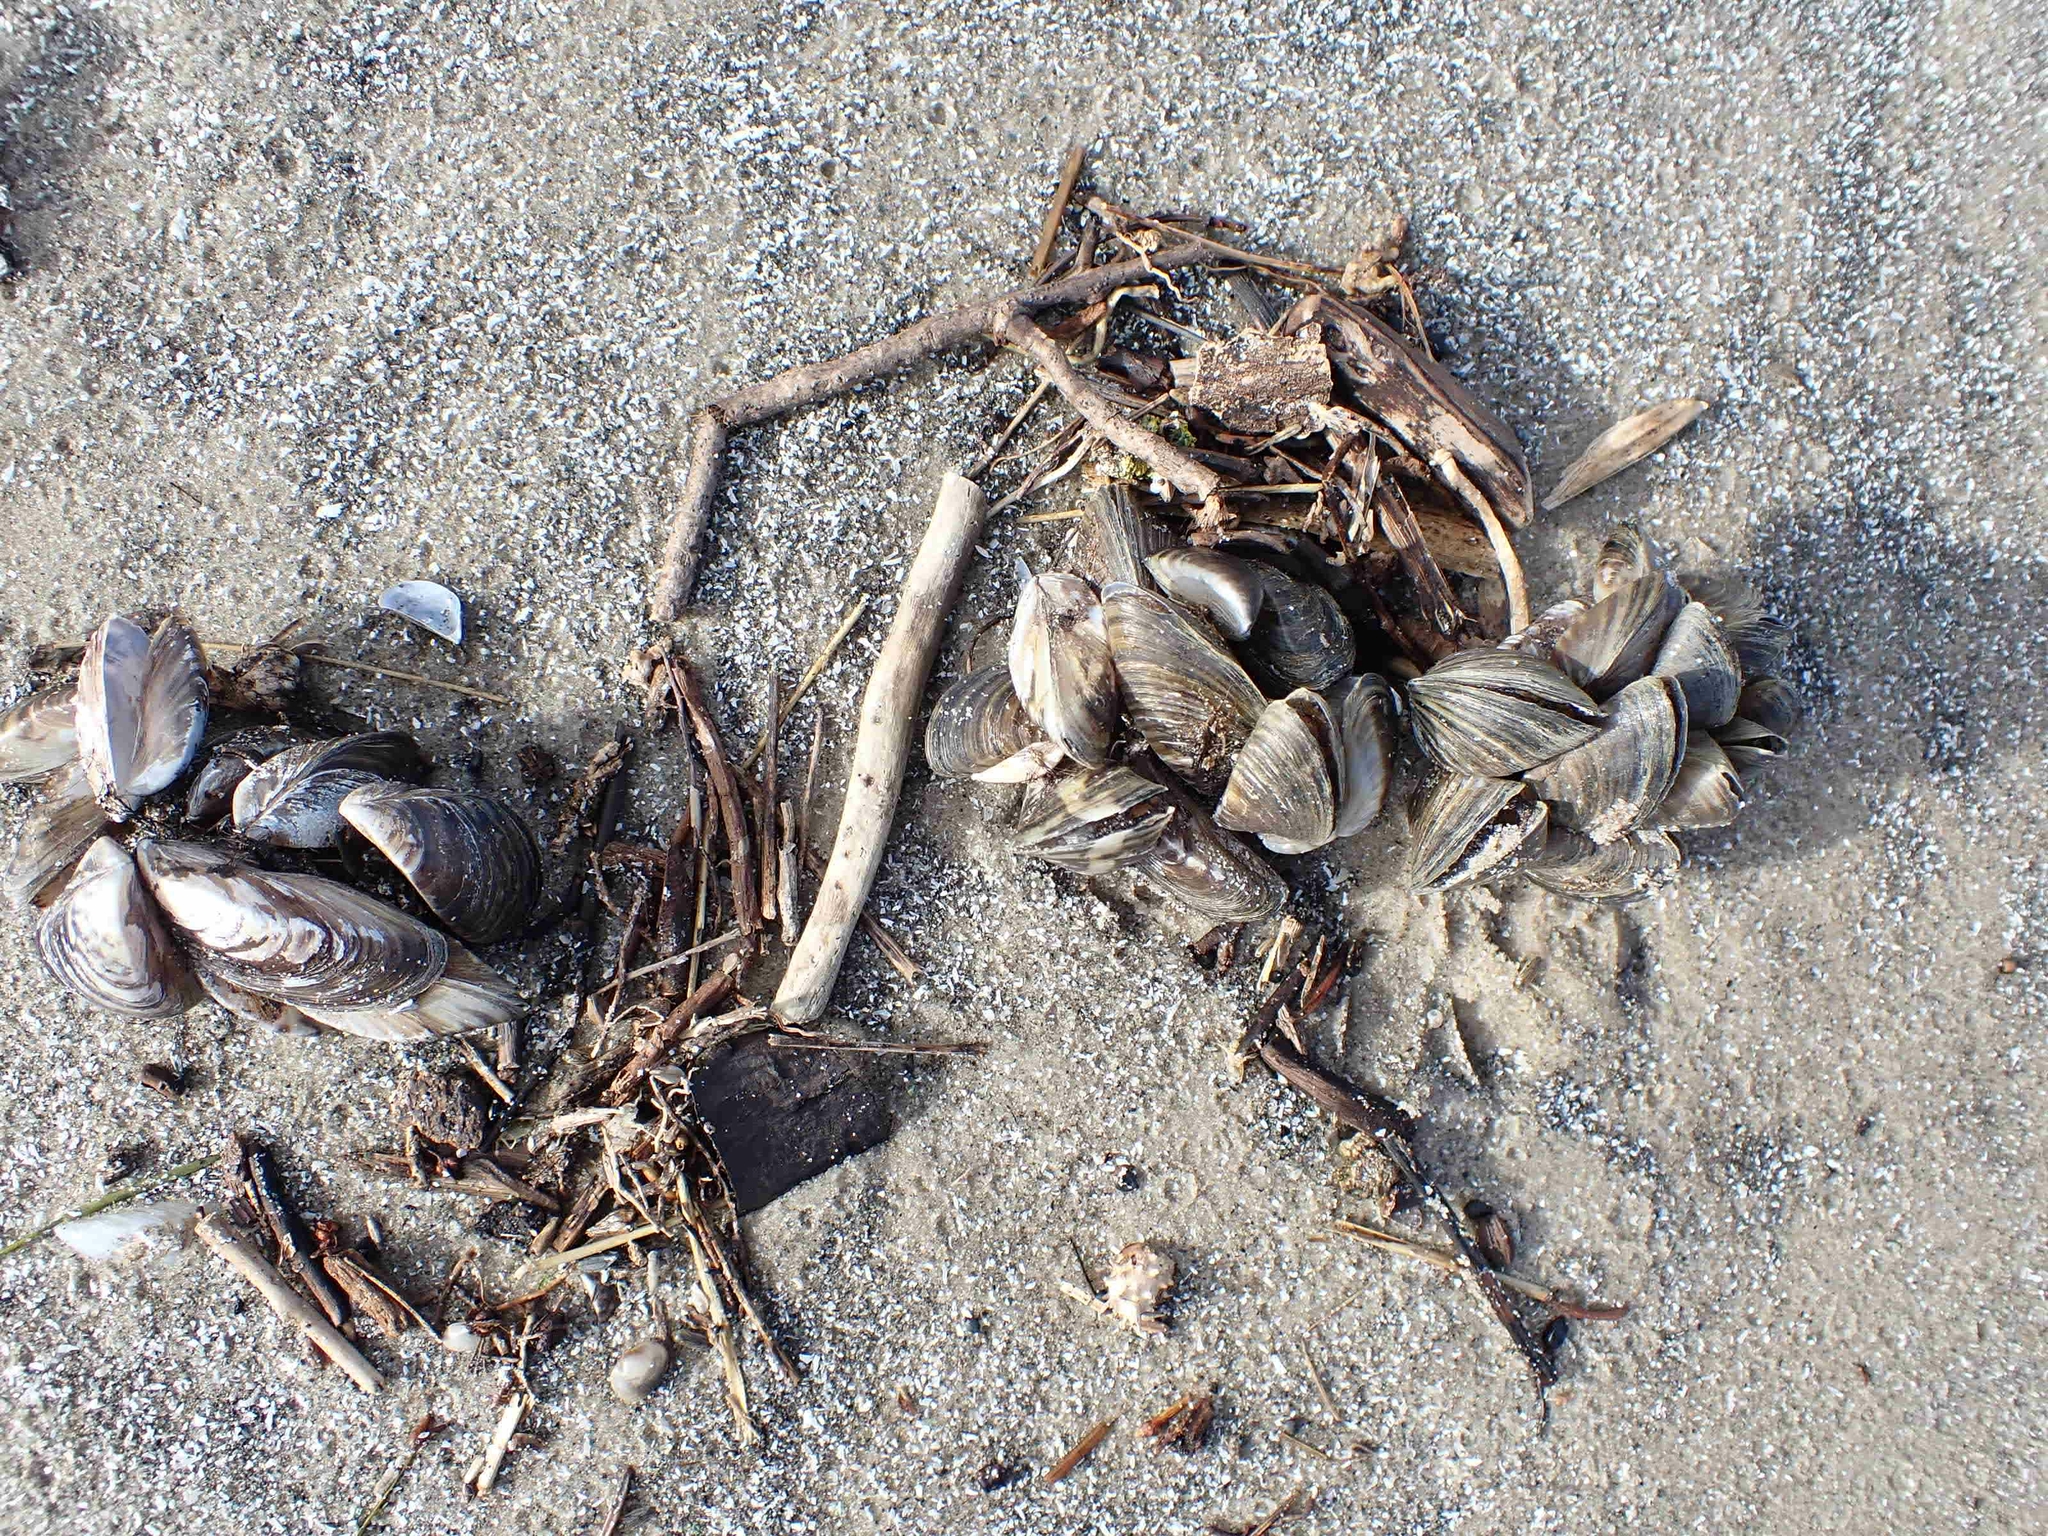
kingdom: Animalia
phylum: Mollusca
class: Bivalvia
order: Myida
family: Dreissenidae
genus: Dreissena
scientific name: Dreissena polymorpha
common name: Zebra mussel
